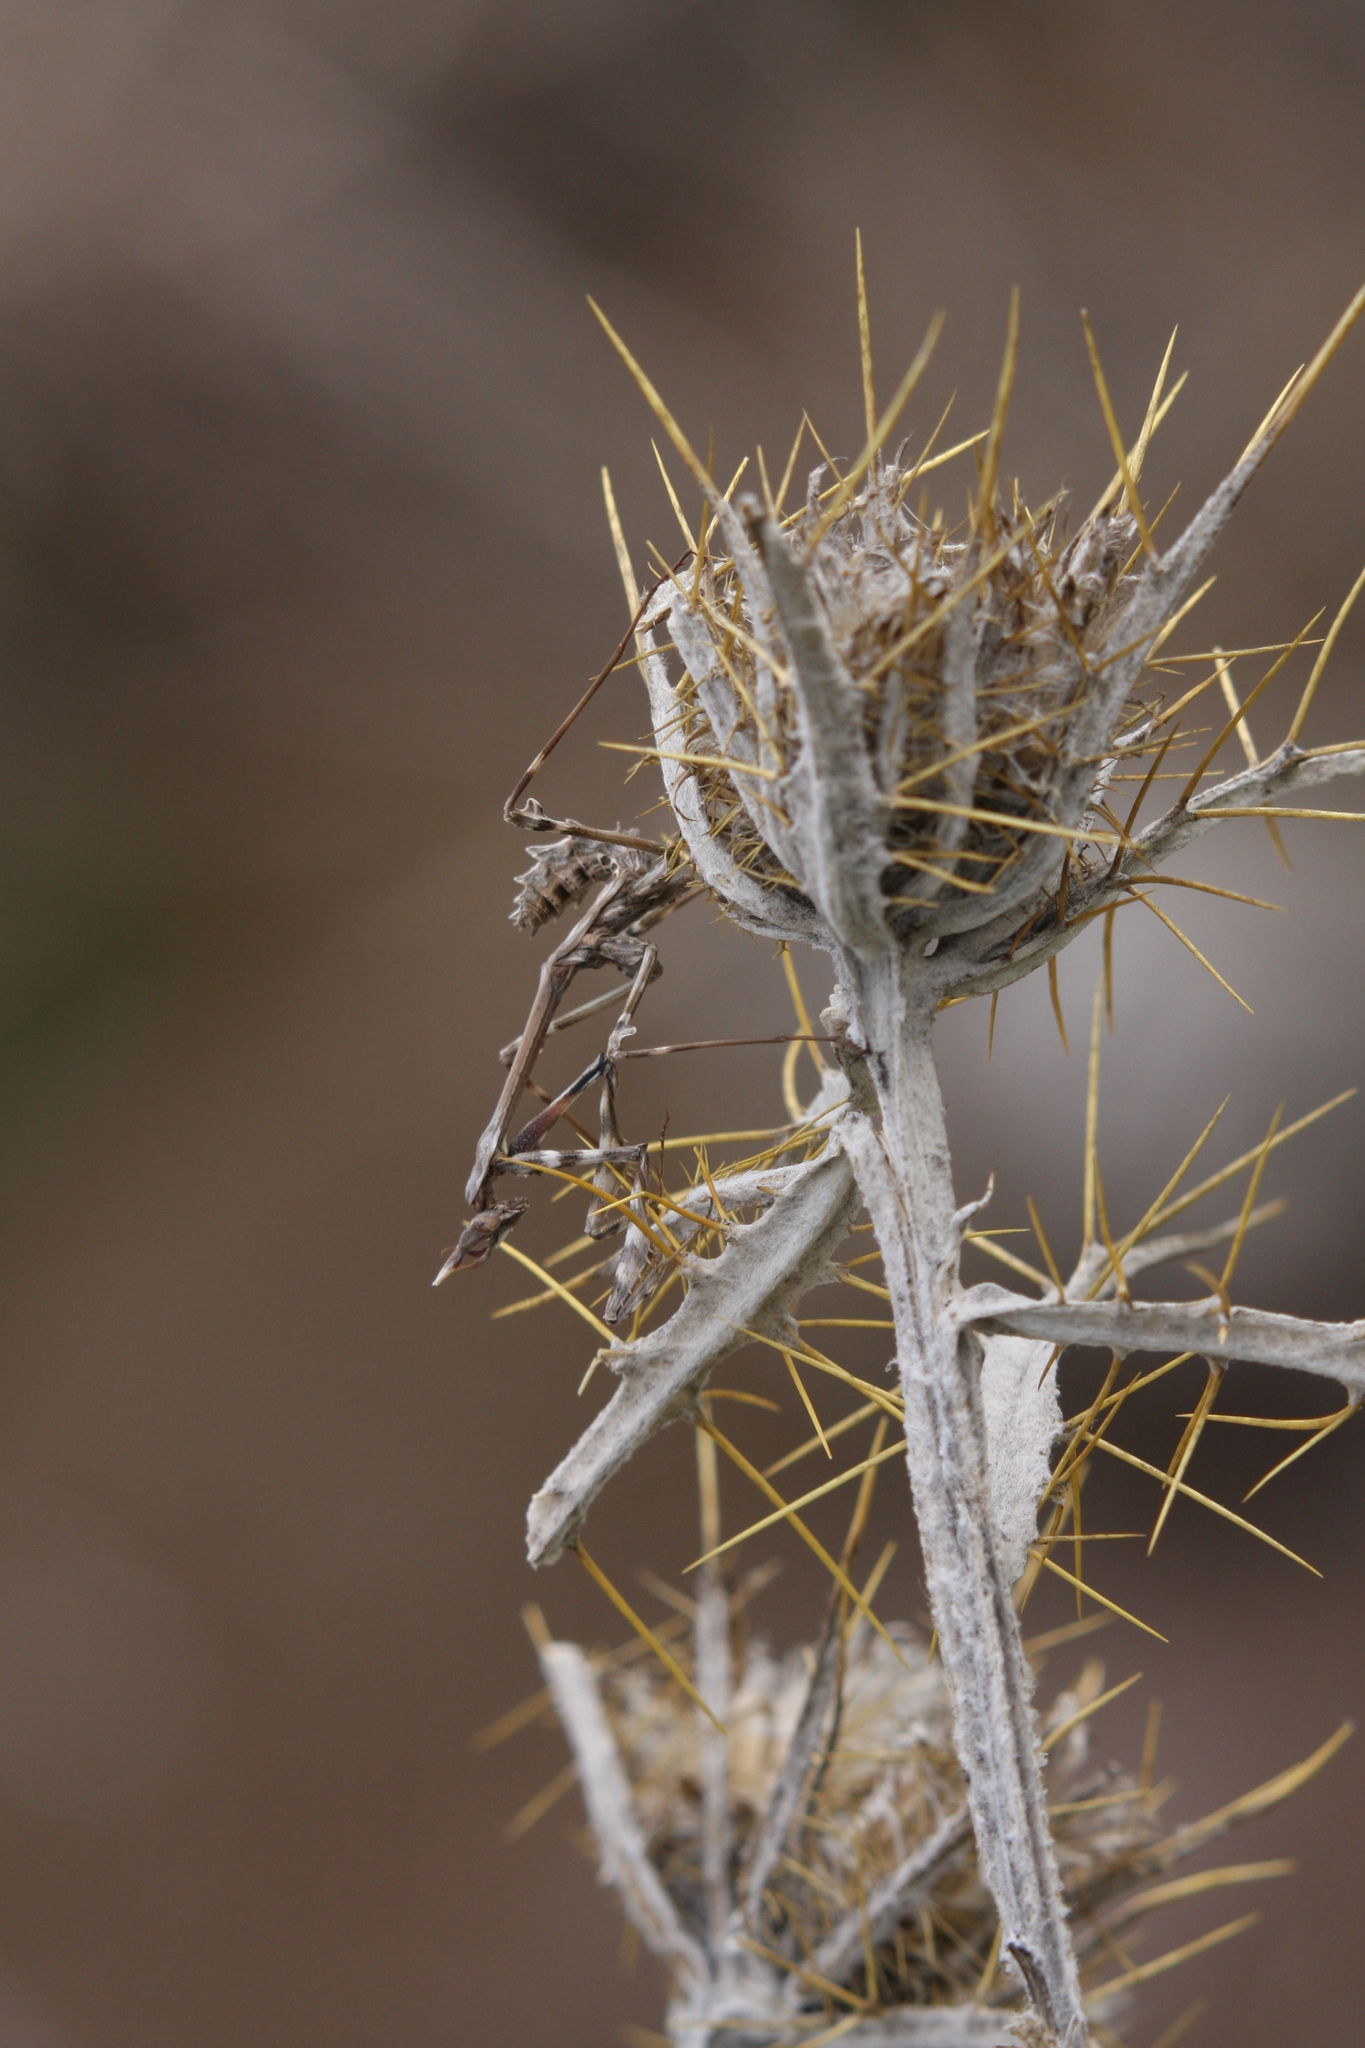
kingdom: Animalia
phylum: Arthropoda
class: Insecta
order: Mantodea
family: Empusidae
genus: Empusa
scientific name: Empusa fasciata
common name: Devil's mare
